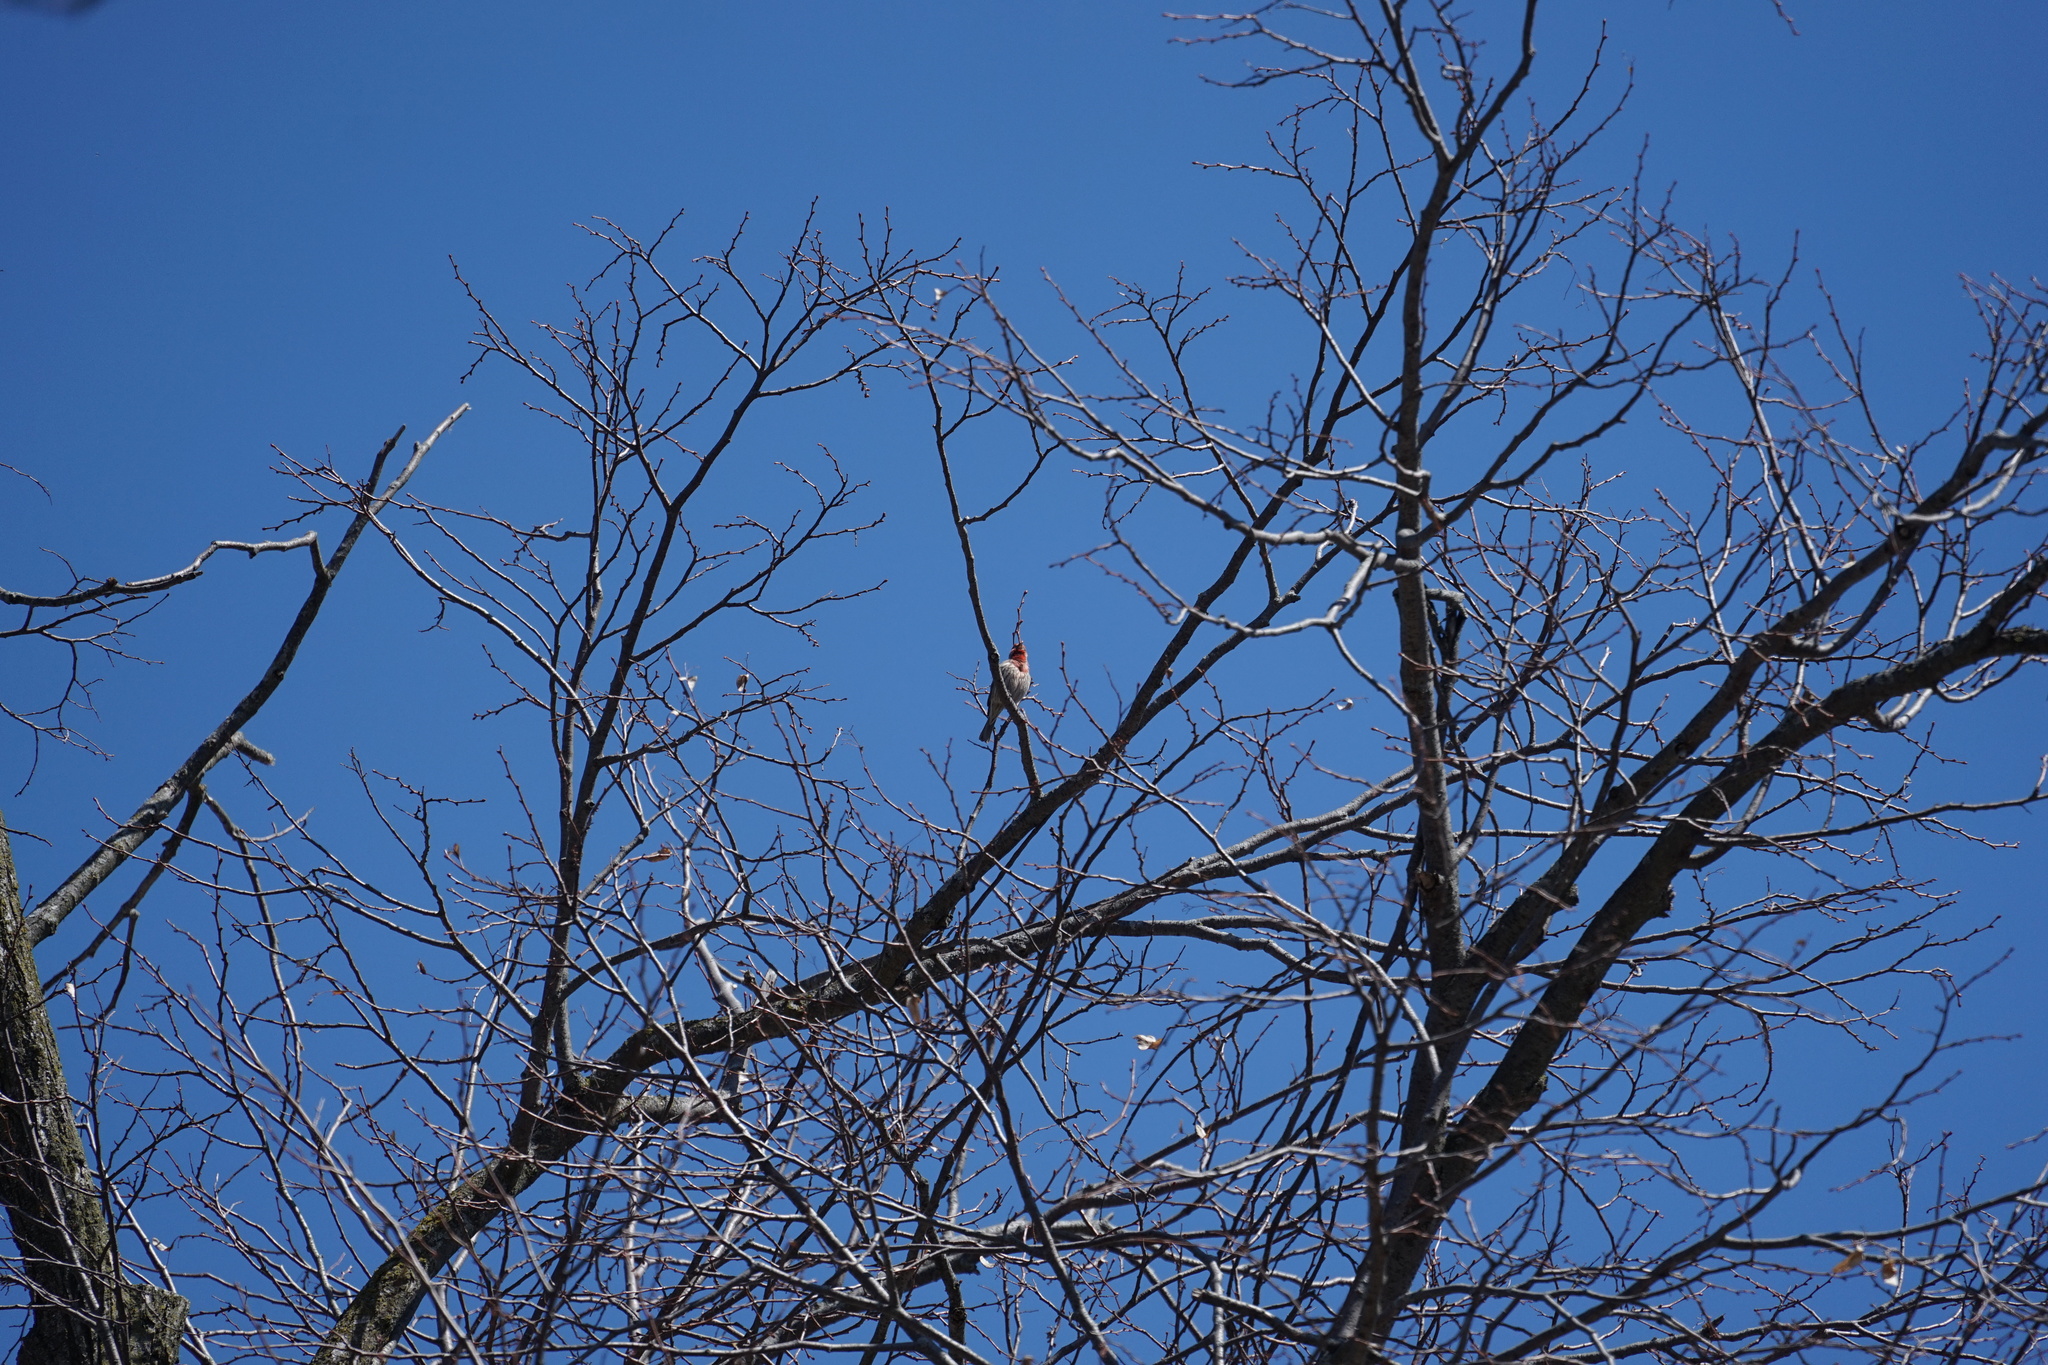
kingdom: Animalia
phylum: Chordata
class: Aves
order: Passeriformes
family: Fringillidae
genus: Haemorhous
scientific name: Haemorhous mexicanus
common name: House finch
